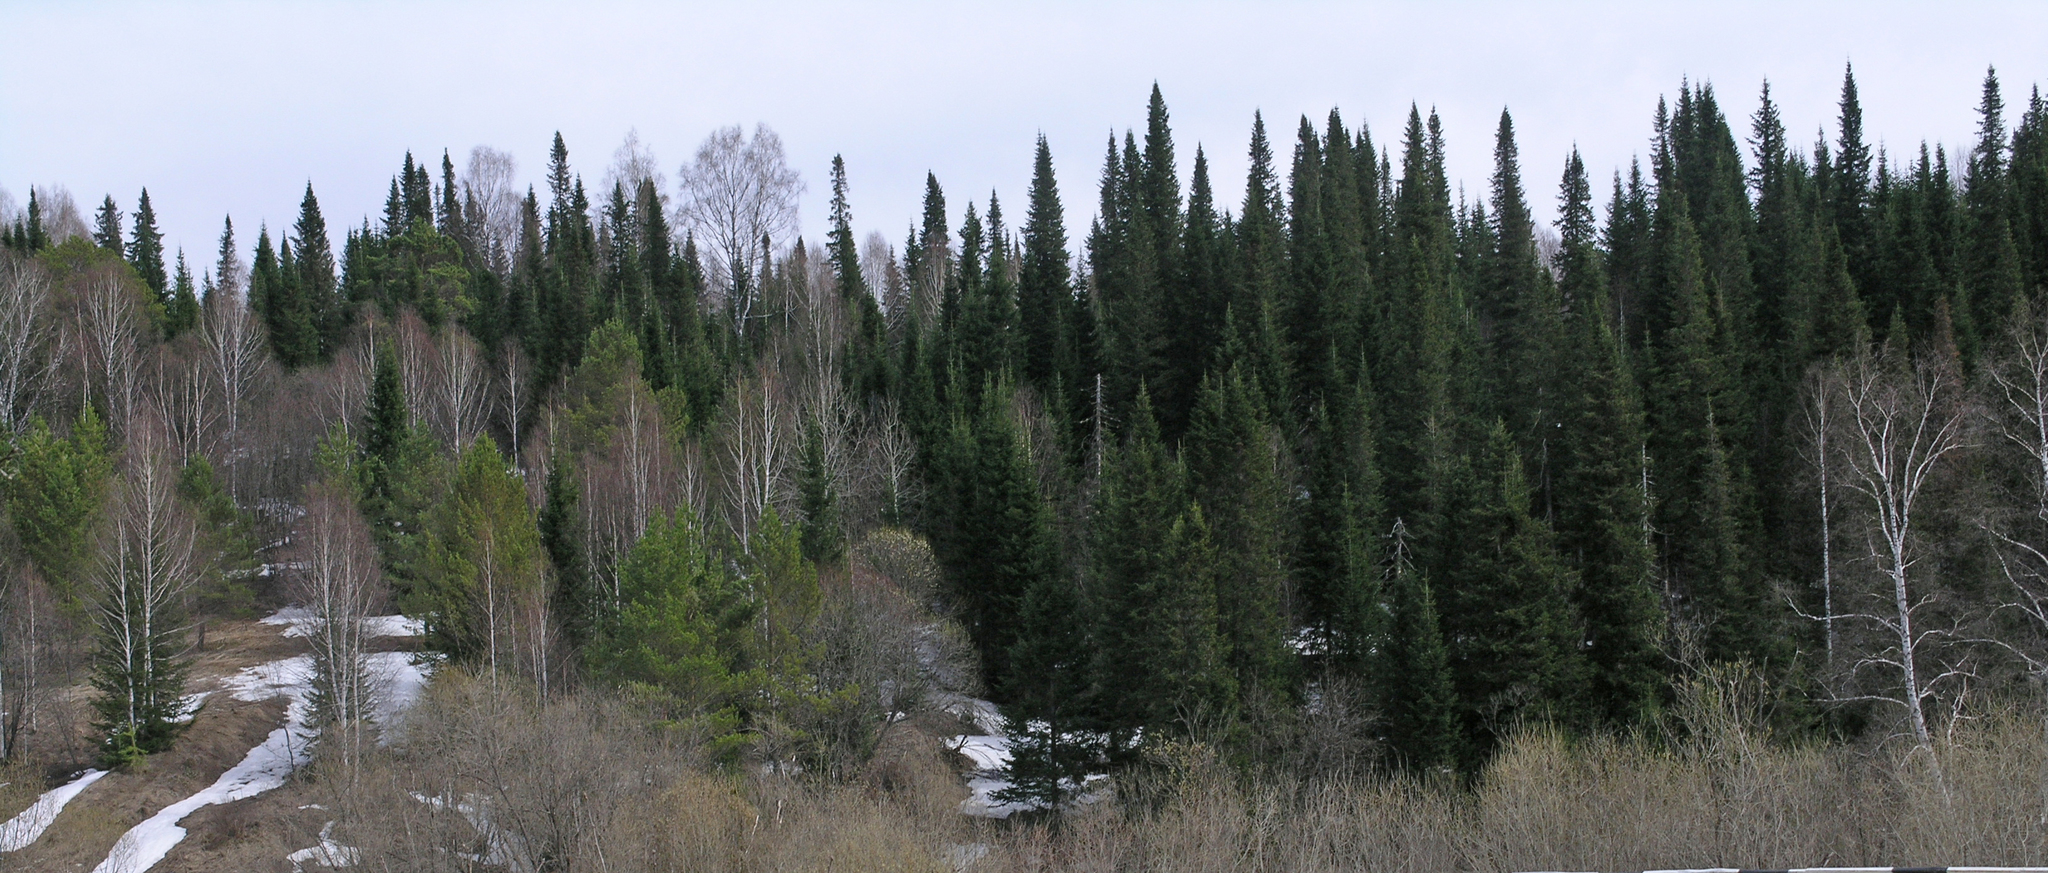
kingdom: Plantae
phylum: Tracheophyta
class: Pinopsida
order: Pinales
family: Pinaceae
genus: Abies
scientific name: Abies sibirica
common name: Siberian fir
